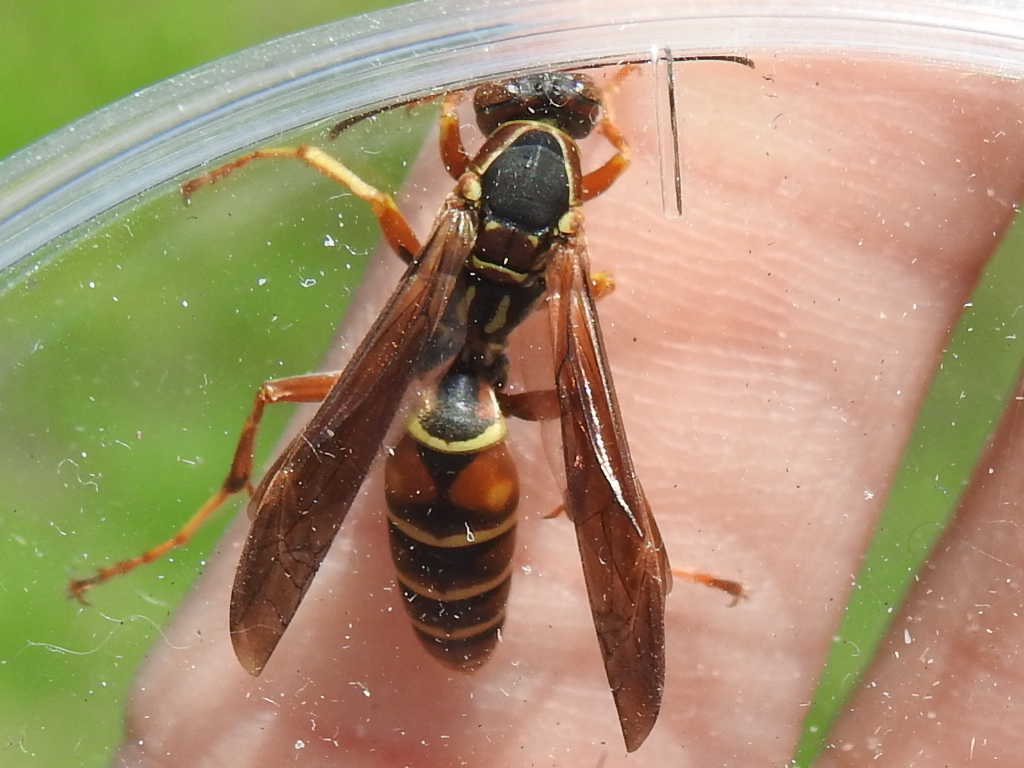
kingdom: Animalia
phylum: Arthropoda
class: Insecta
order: Hymenoptera
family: Eumenidae
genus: Polistes
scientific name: Polistes fuscatus
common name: Dark paper wasp
